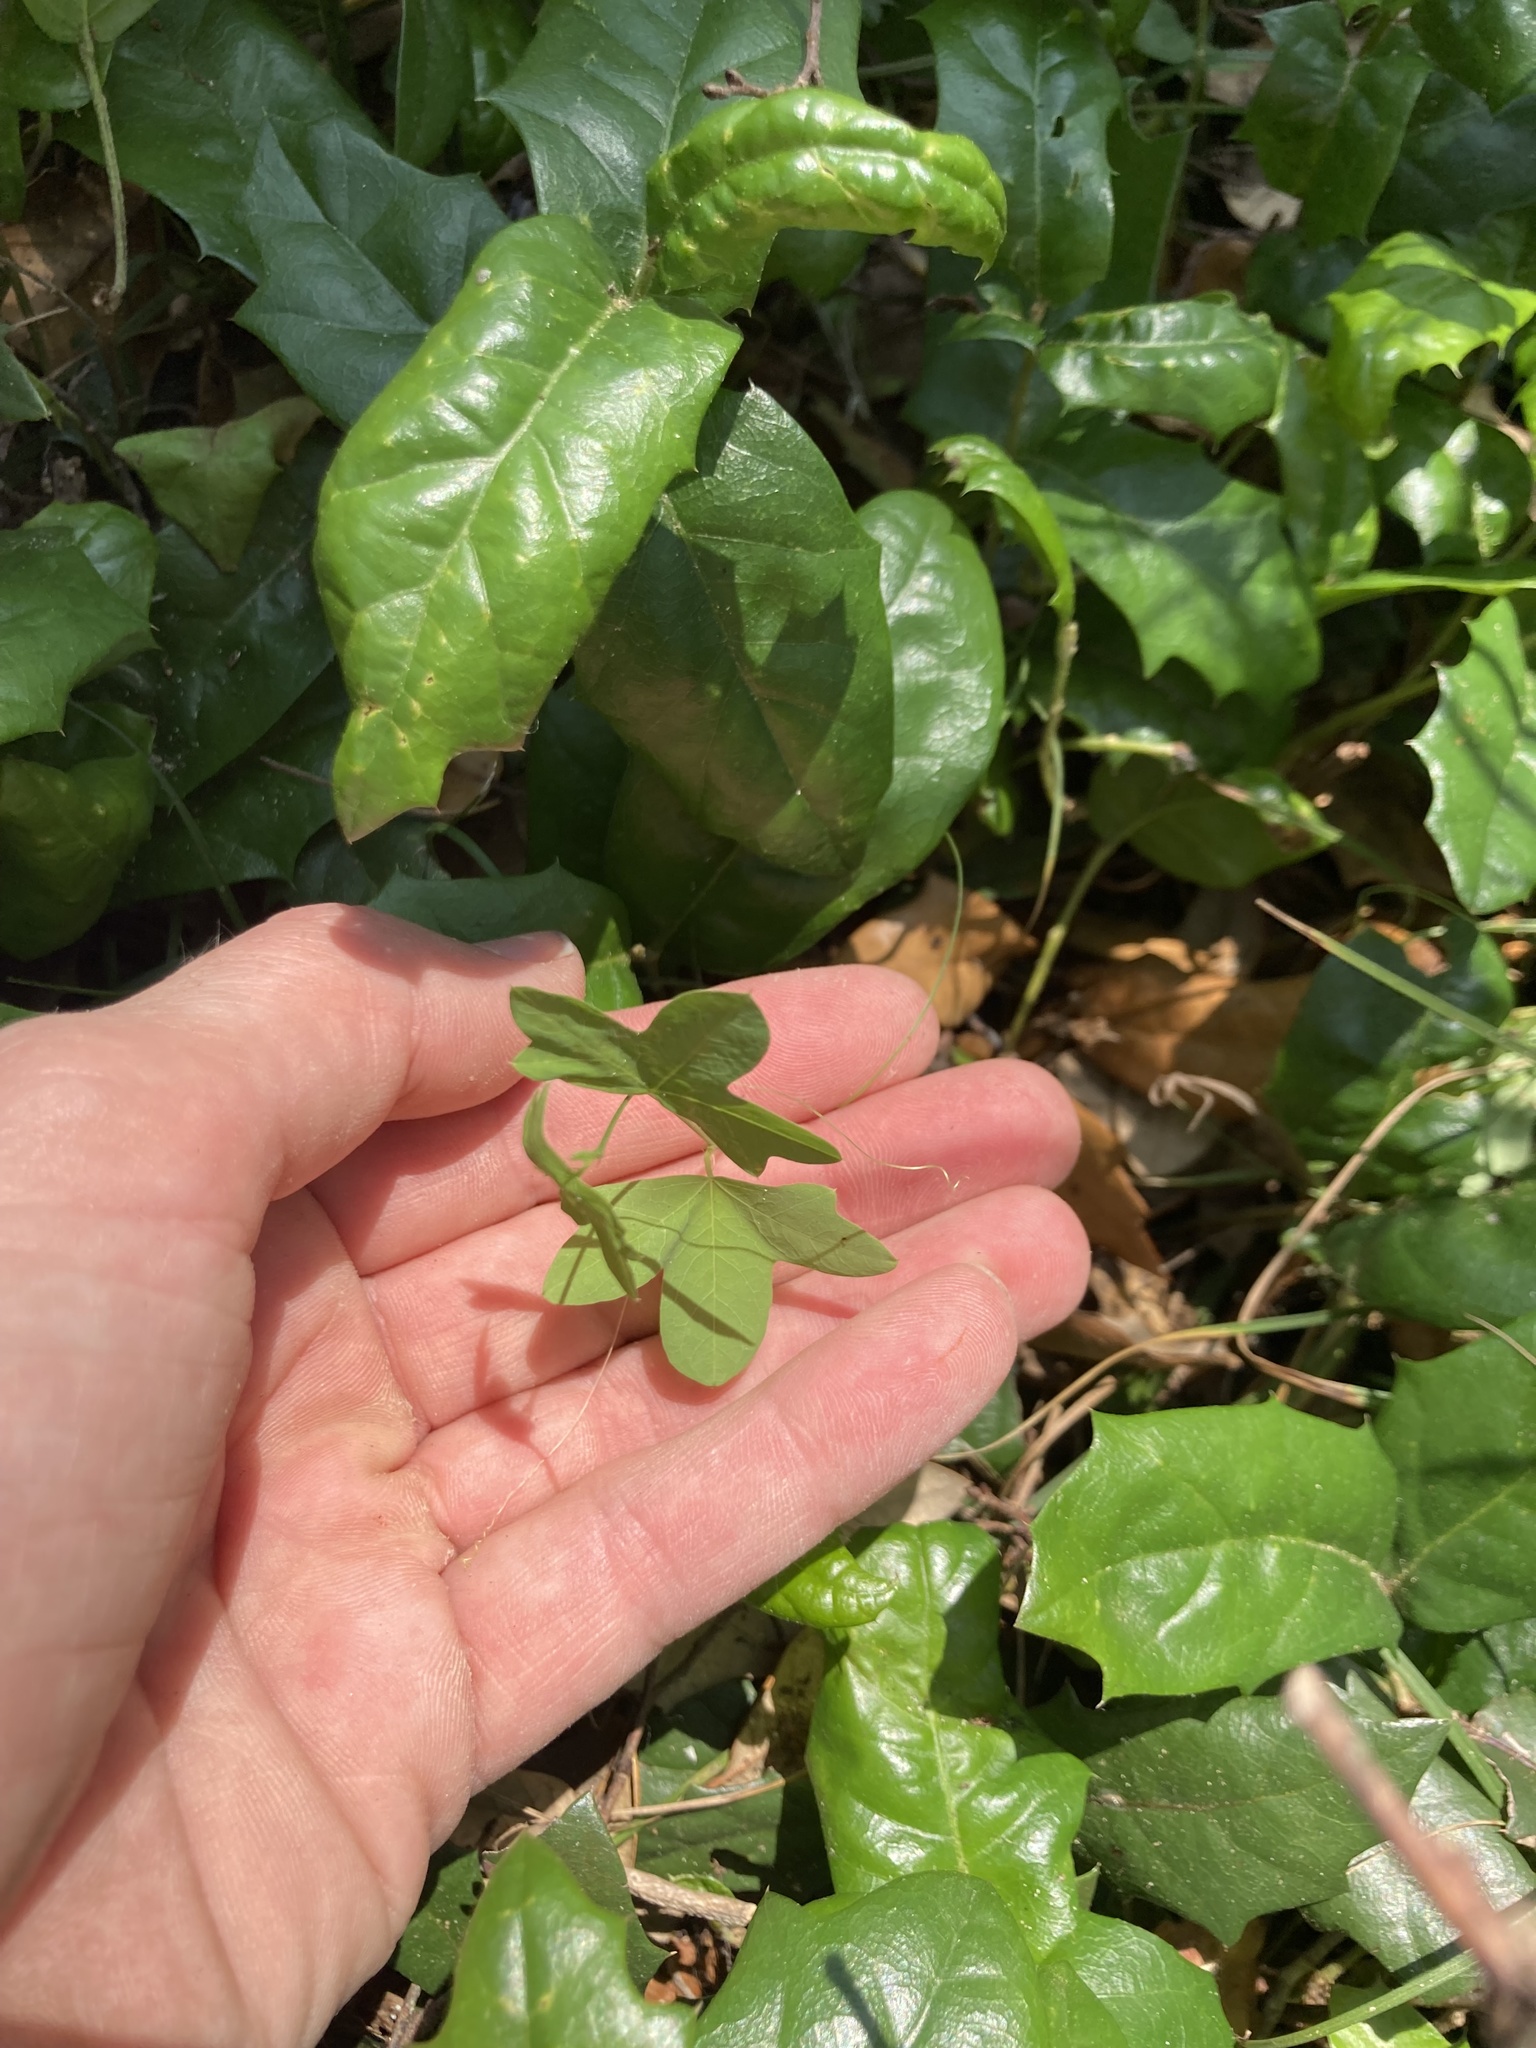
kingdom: Plantae
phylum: Tracheophyta
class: Magnoliopsida
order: Malpighiales
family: Passifloraceae
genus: Passiflora
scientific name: Passiflora tenuiloba
